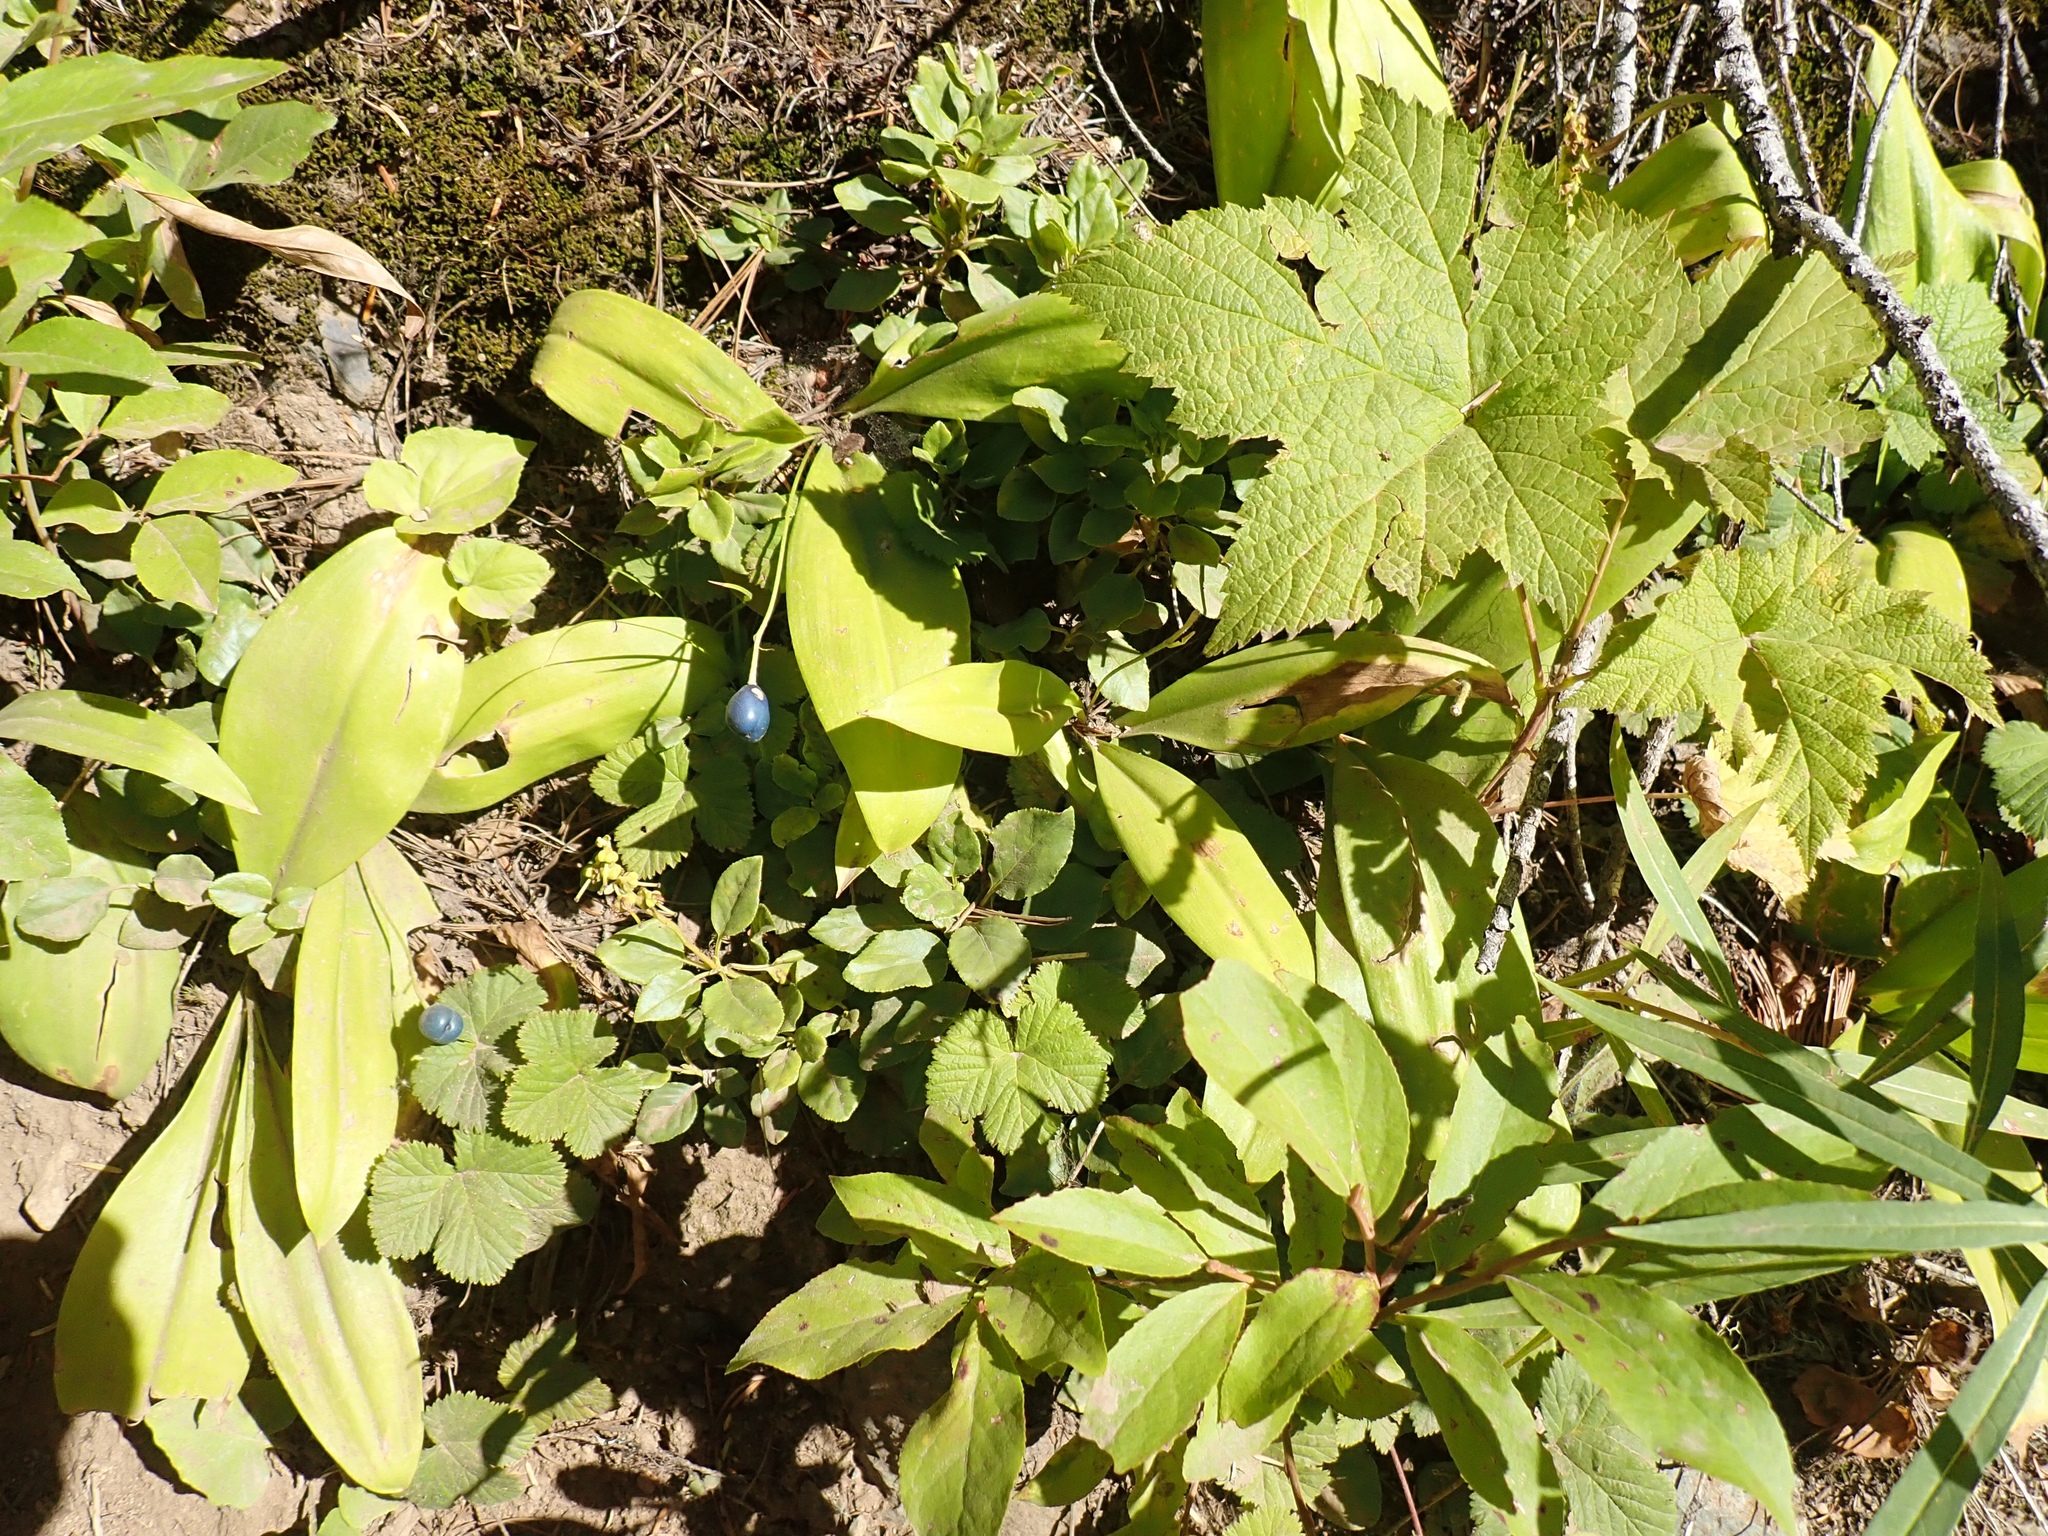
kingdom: Plantae
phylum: Tracheophyta
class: Liliopsida
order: Liliales
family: Liliaceae
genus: Clintonia
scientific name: Clintonia uniflora
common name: Queen's cup
